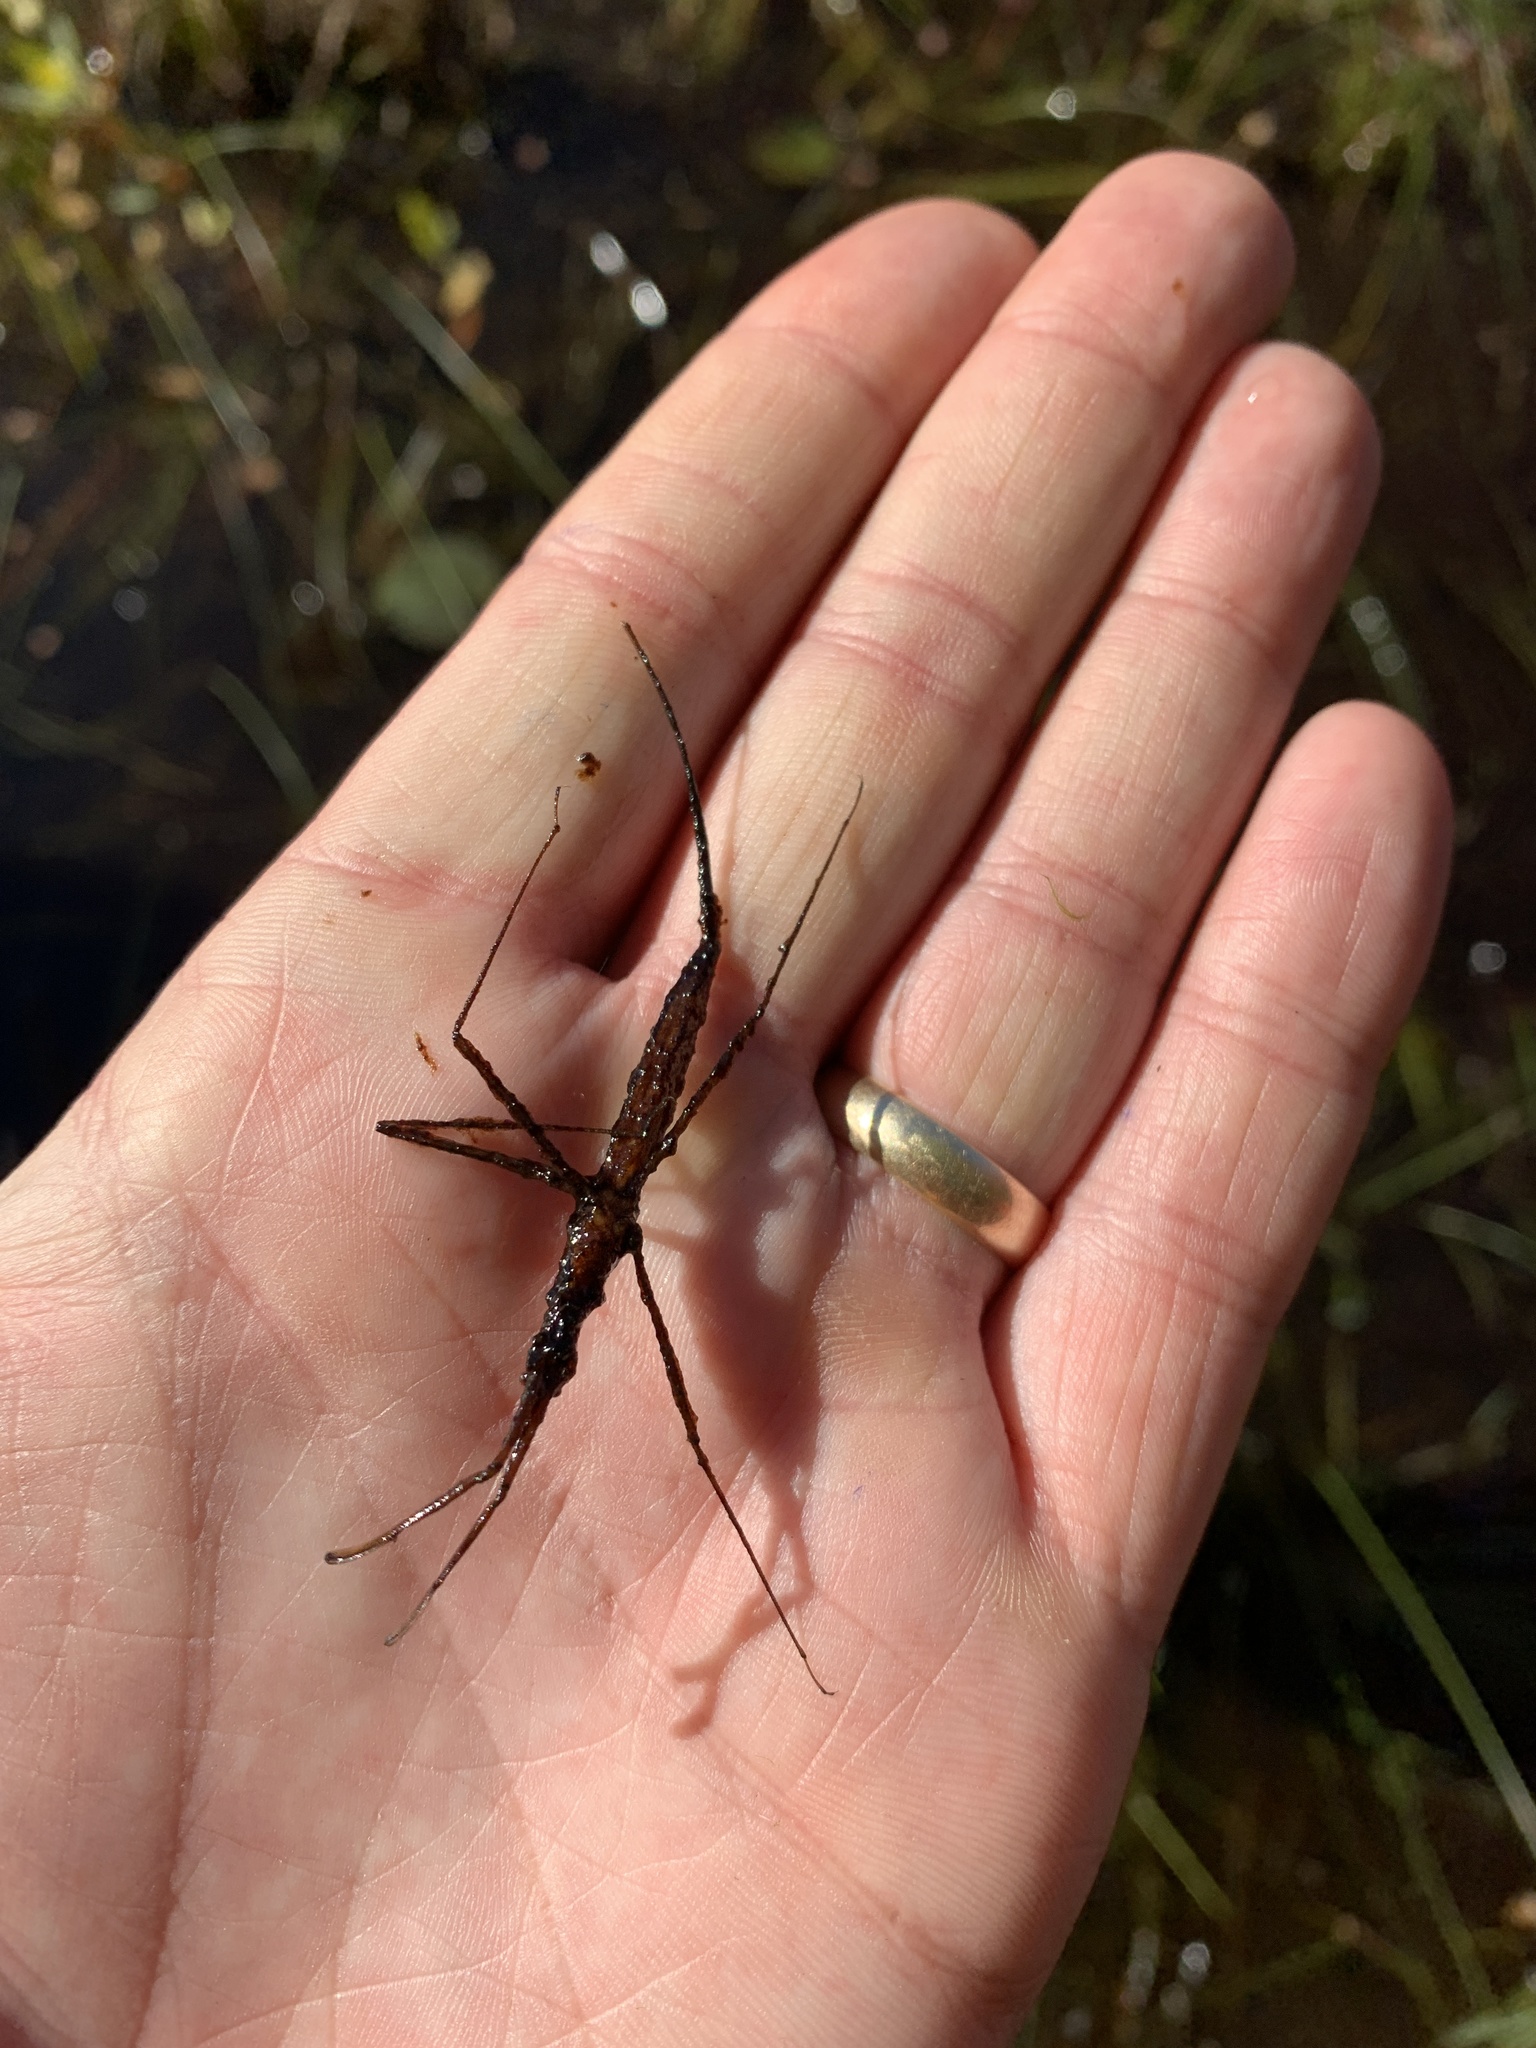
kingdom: Animalia
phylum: Arthropoda
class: Insecta
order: Hemiptera
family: Nepidae
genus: Ranatra
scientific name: Ranatra fusca
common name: Brown waterscorpion
